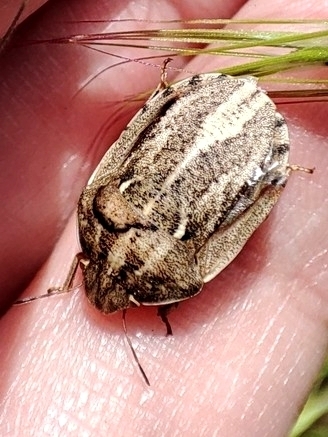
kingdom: Animalia
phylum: Arthropoda
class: Insecta
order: Hemiptera
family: Scutelleridae
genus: Eurygaster
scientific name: Eurygaster integriceps
